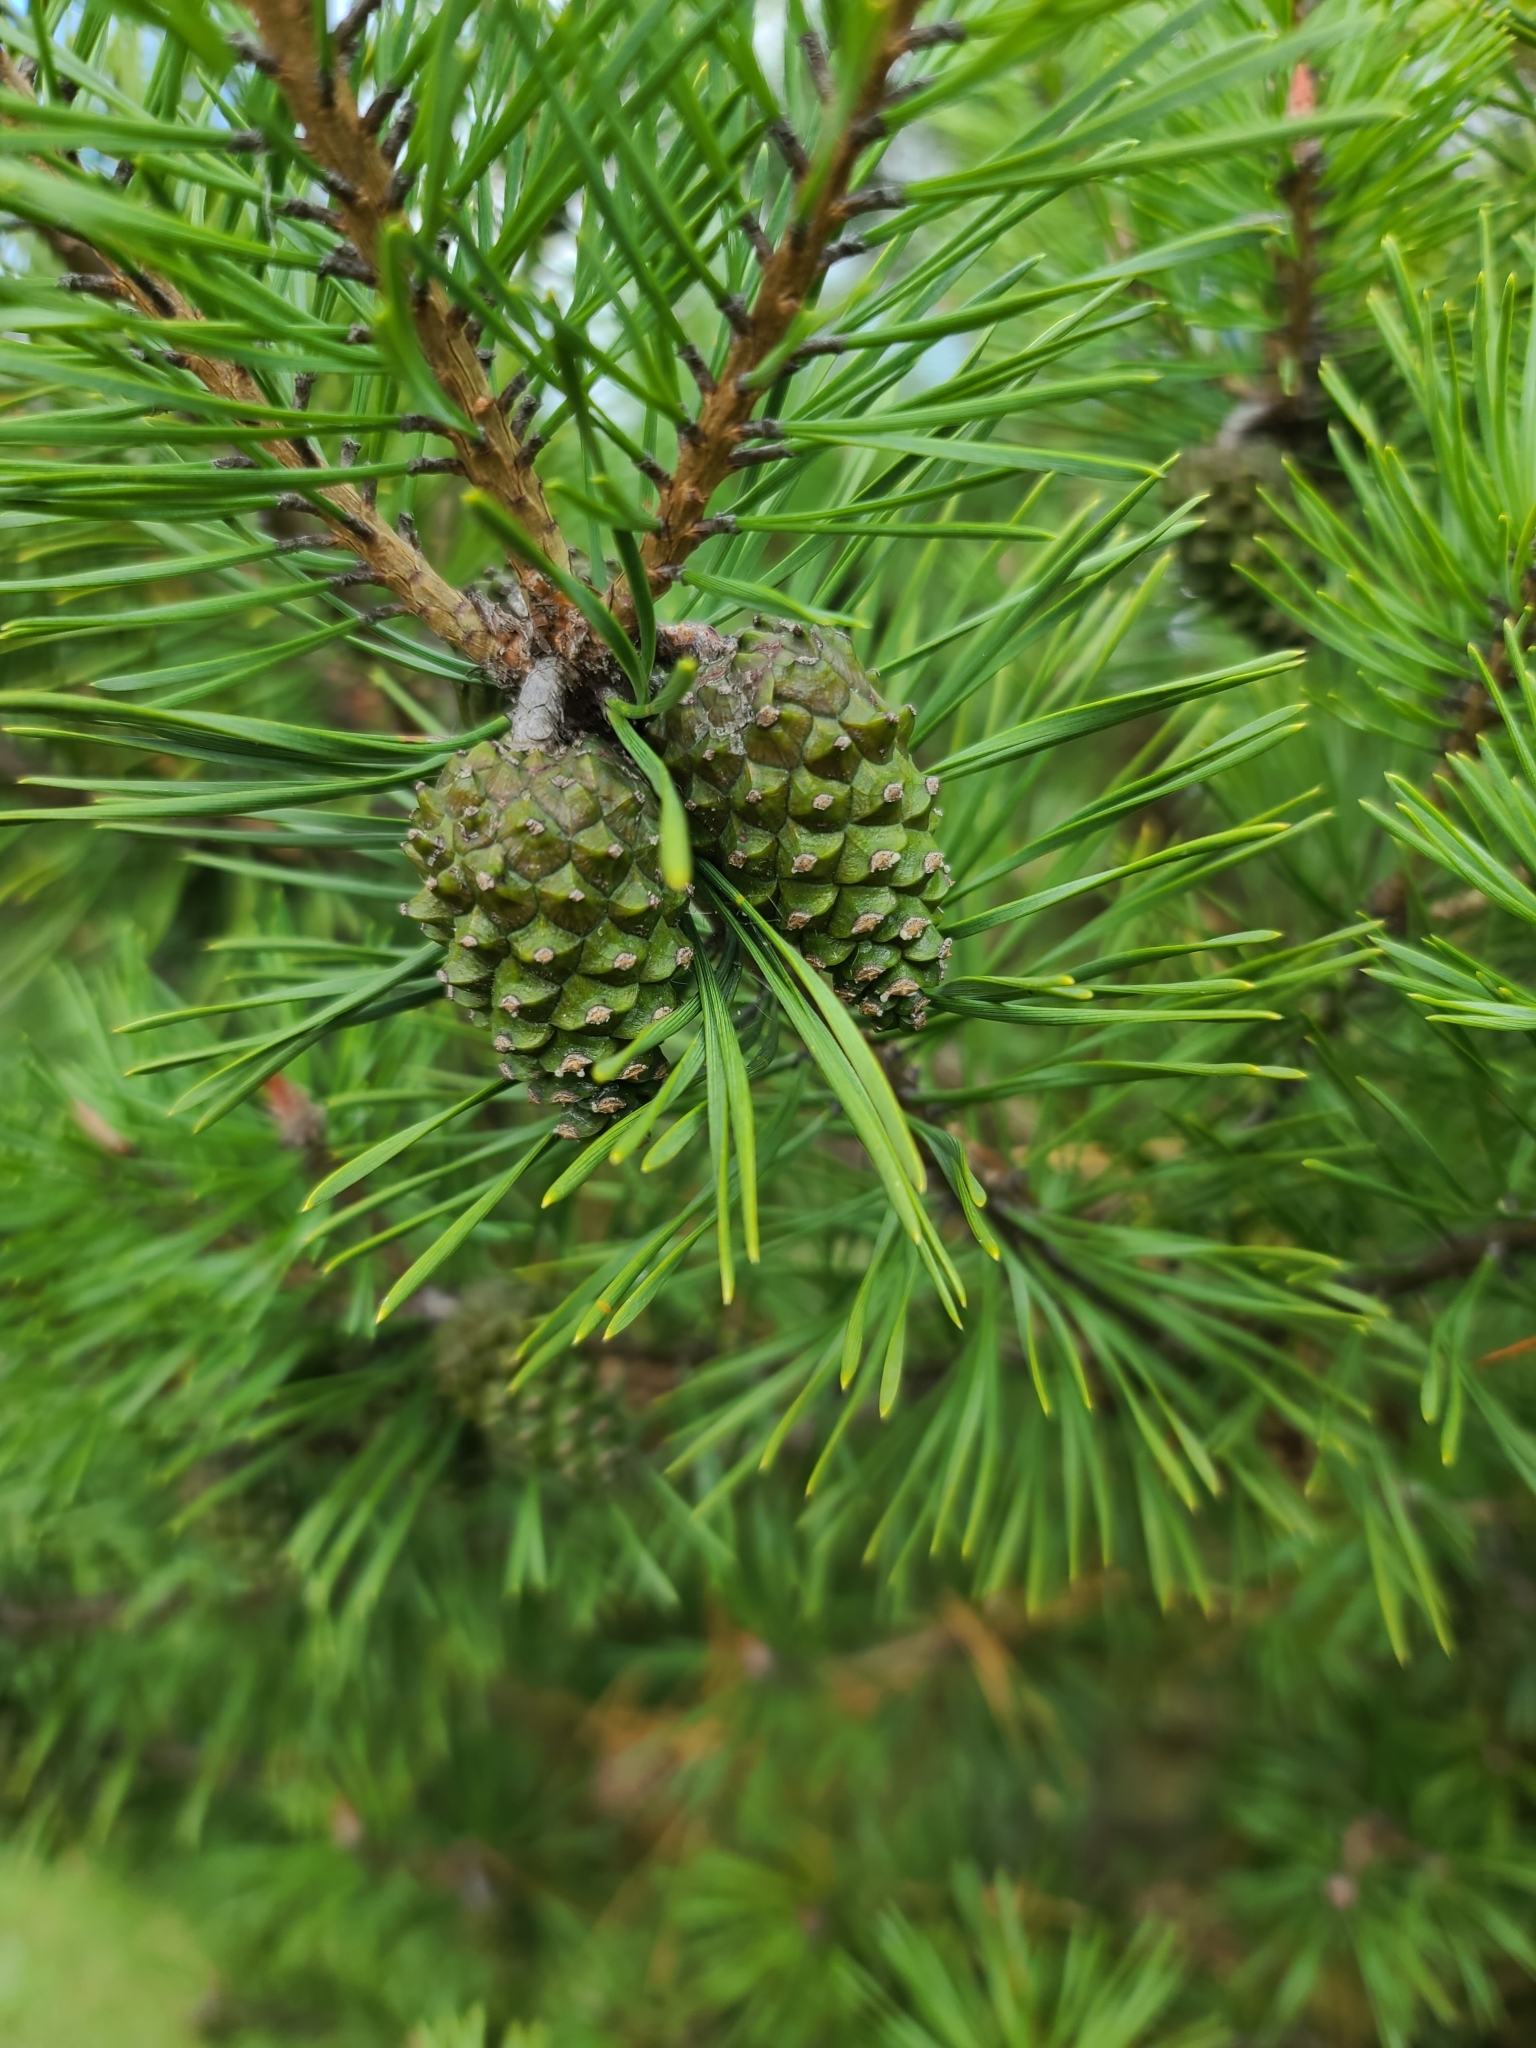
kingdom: Plantae
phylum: Tracheophyta
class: Pinopsida
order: Pinales
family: Pinaceae
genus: Pinus
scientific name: Pinus sylvestris
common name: Scots pine
